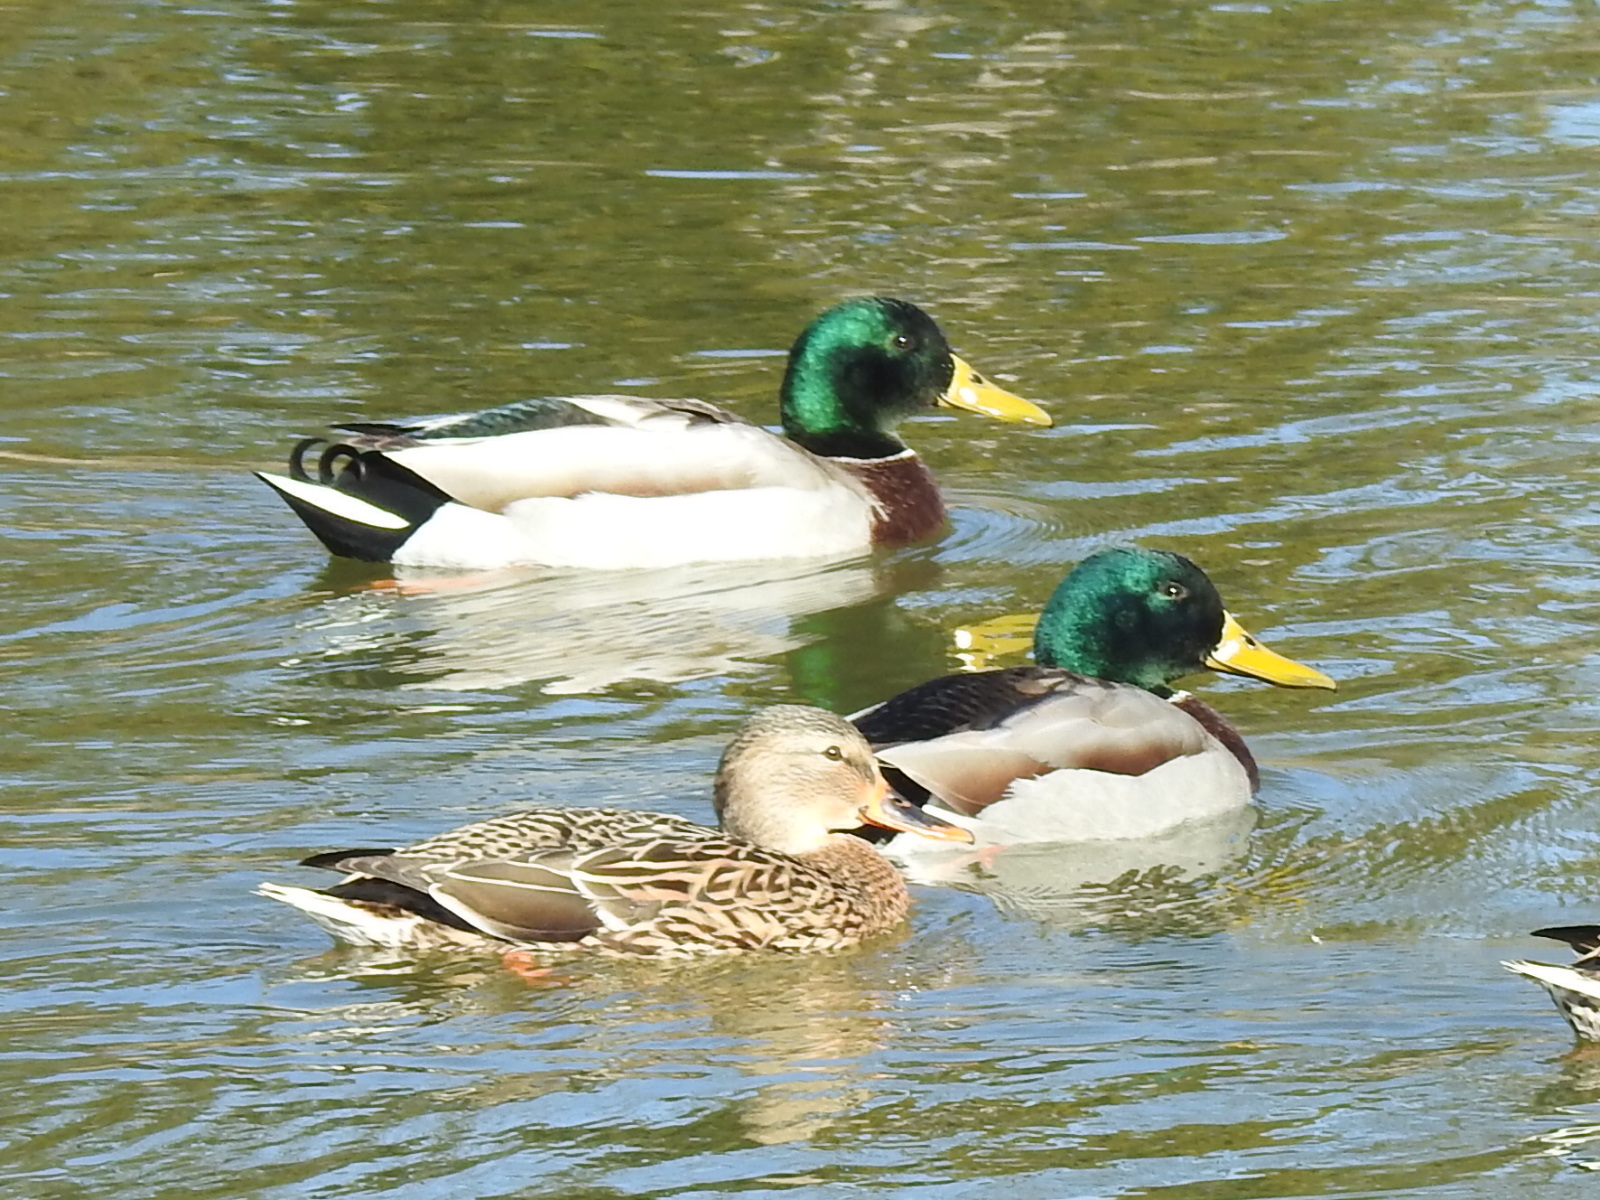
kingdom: Animalia
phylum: Chordata
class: Aves
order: Anseriformes
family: Anatidae
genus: Anas
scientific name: Anas platyrhynchos
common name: Mallard
